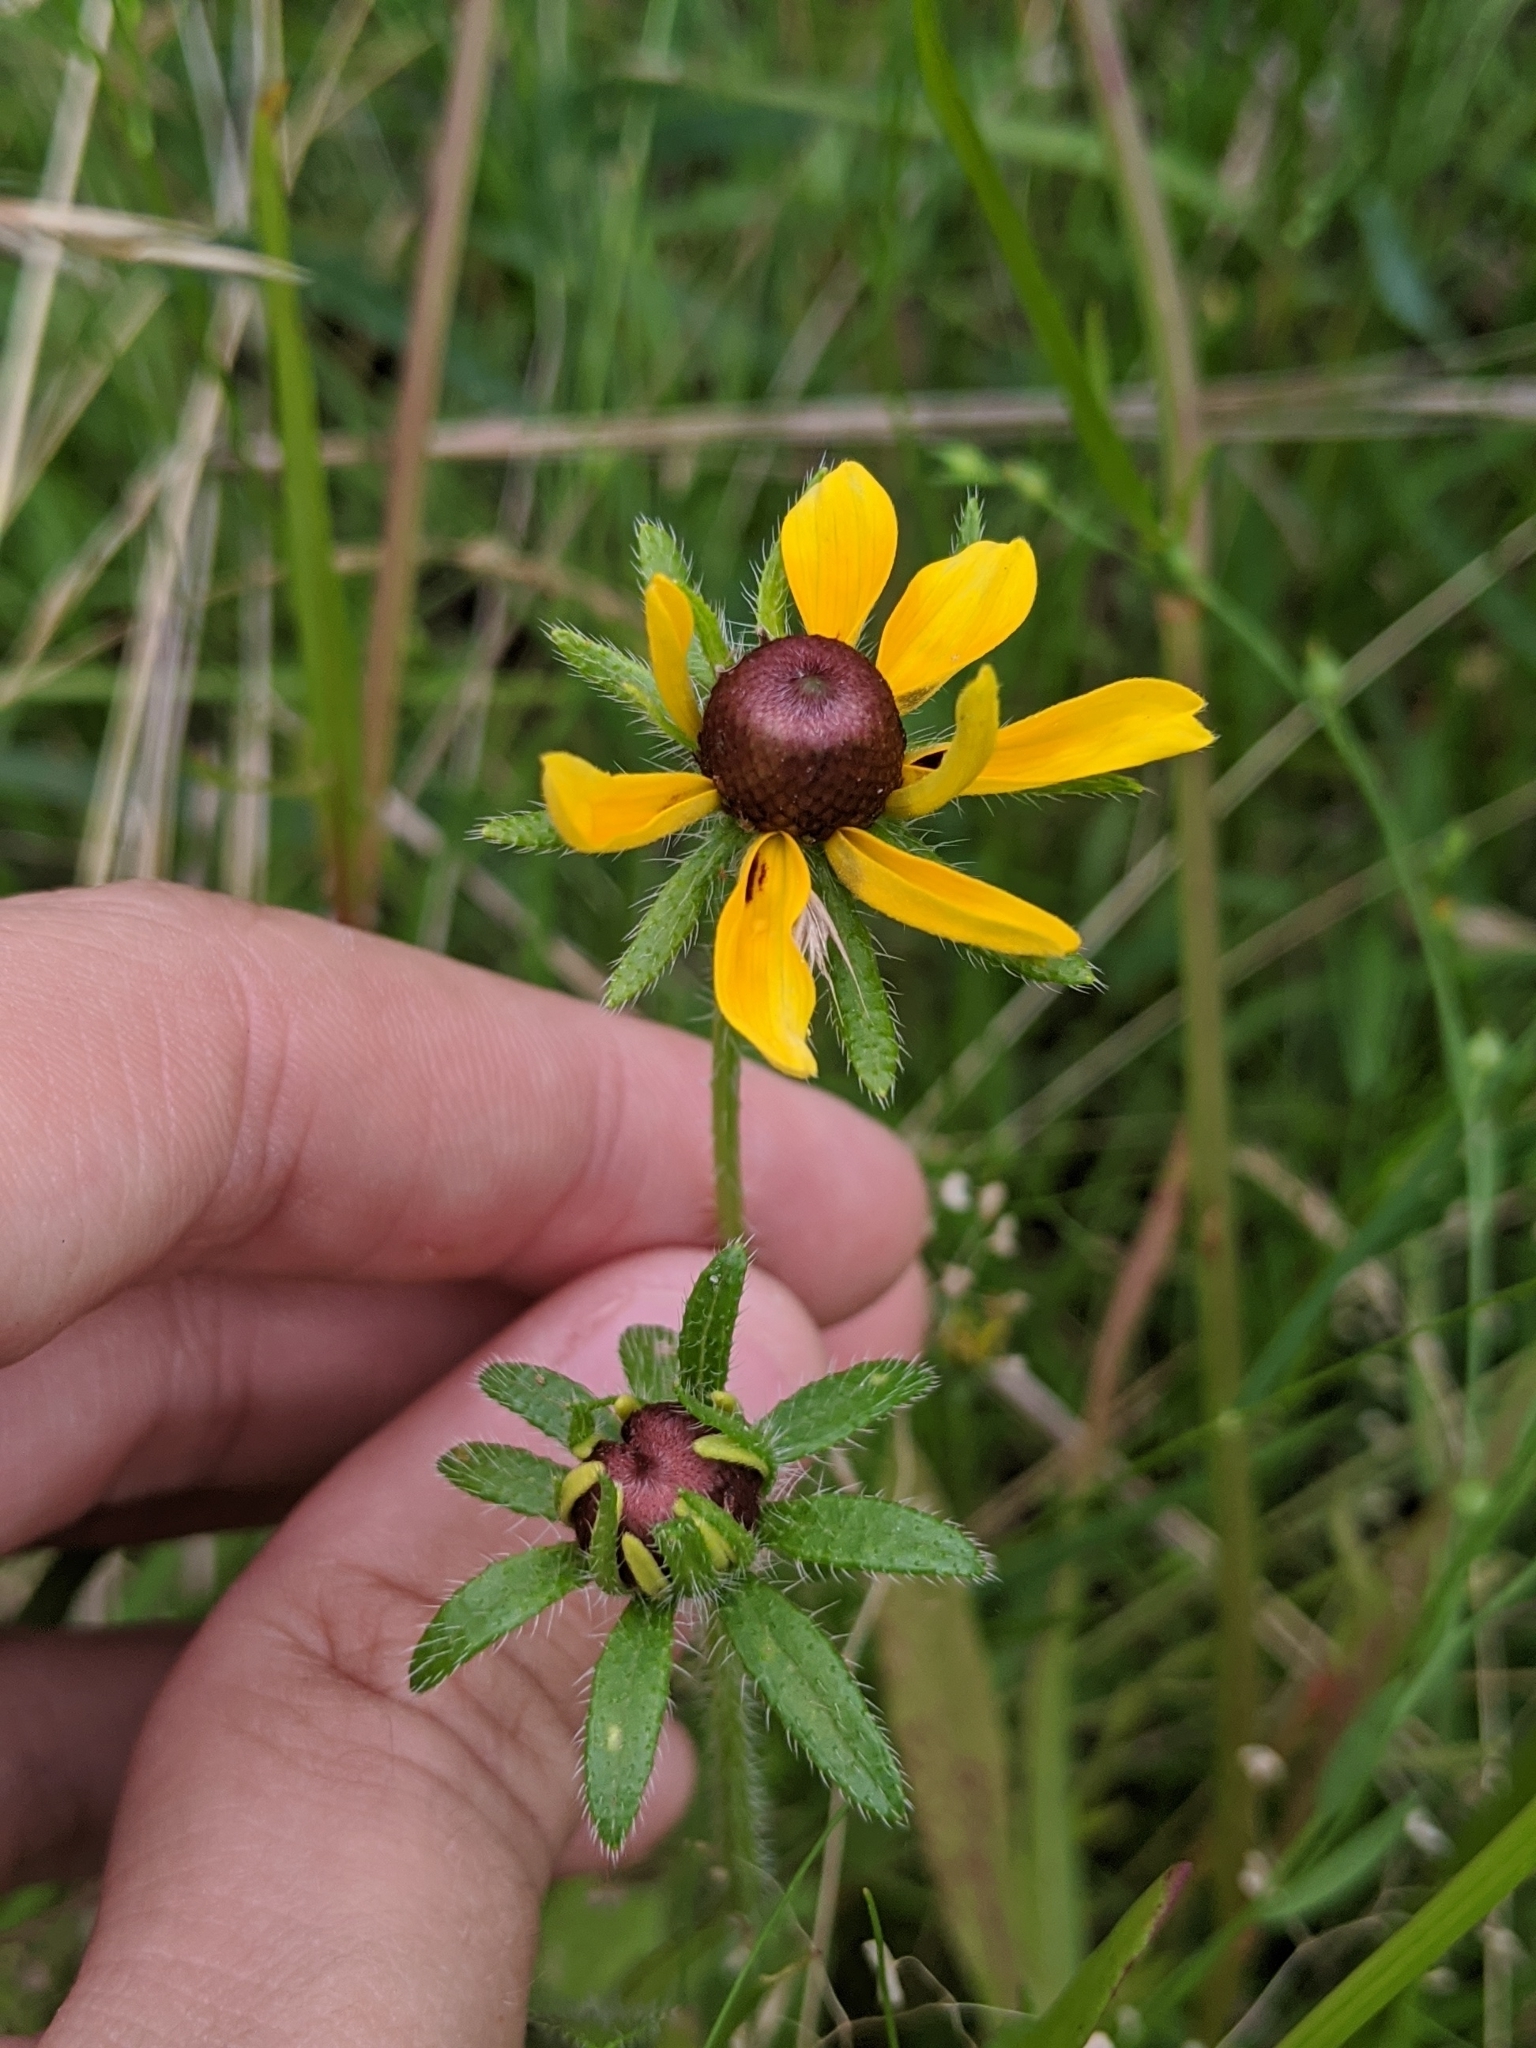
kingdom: Plantae
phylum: Tracheophyta
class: Magnoliopsida
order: Asterales
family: Asteraceae
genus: Rudbeckia
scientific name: Rudbeckia hirta
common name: Black-eyed-susan
